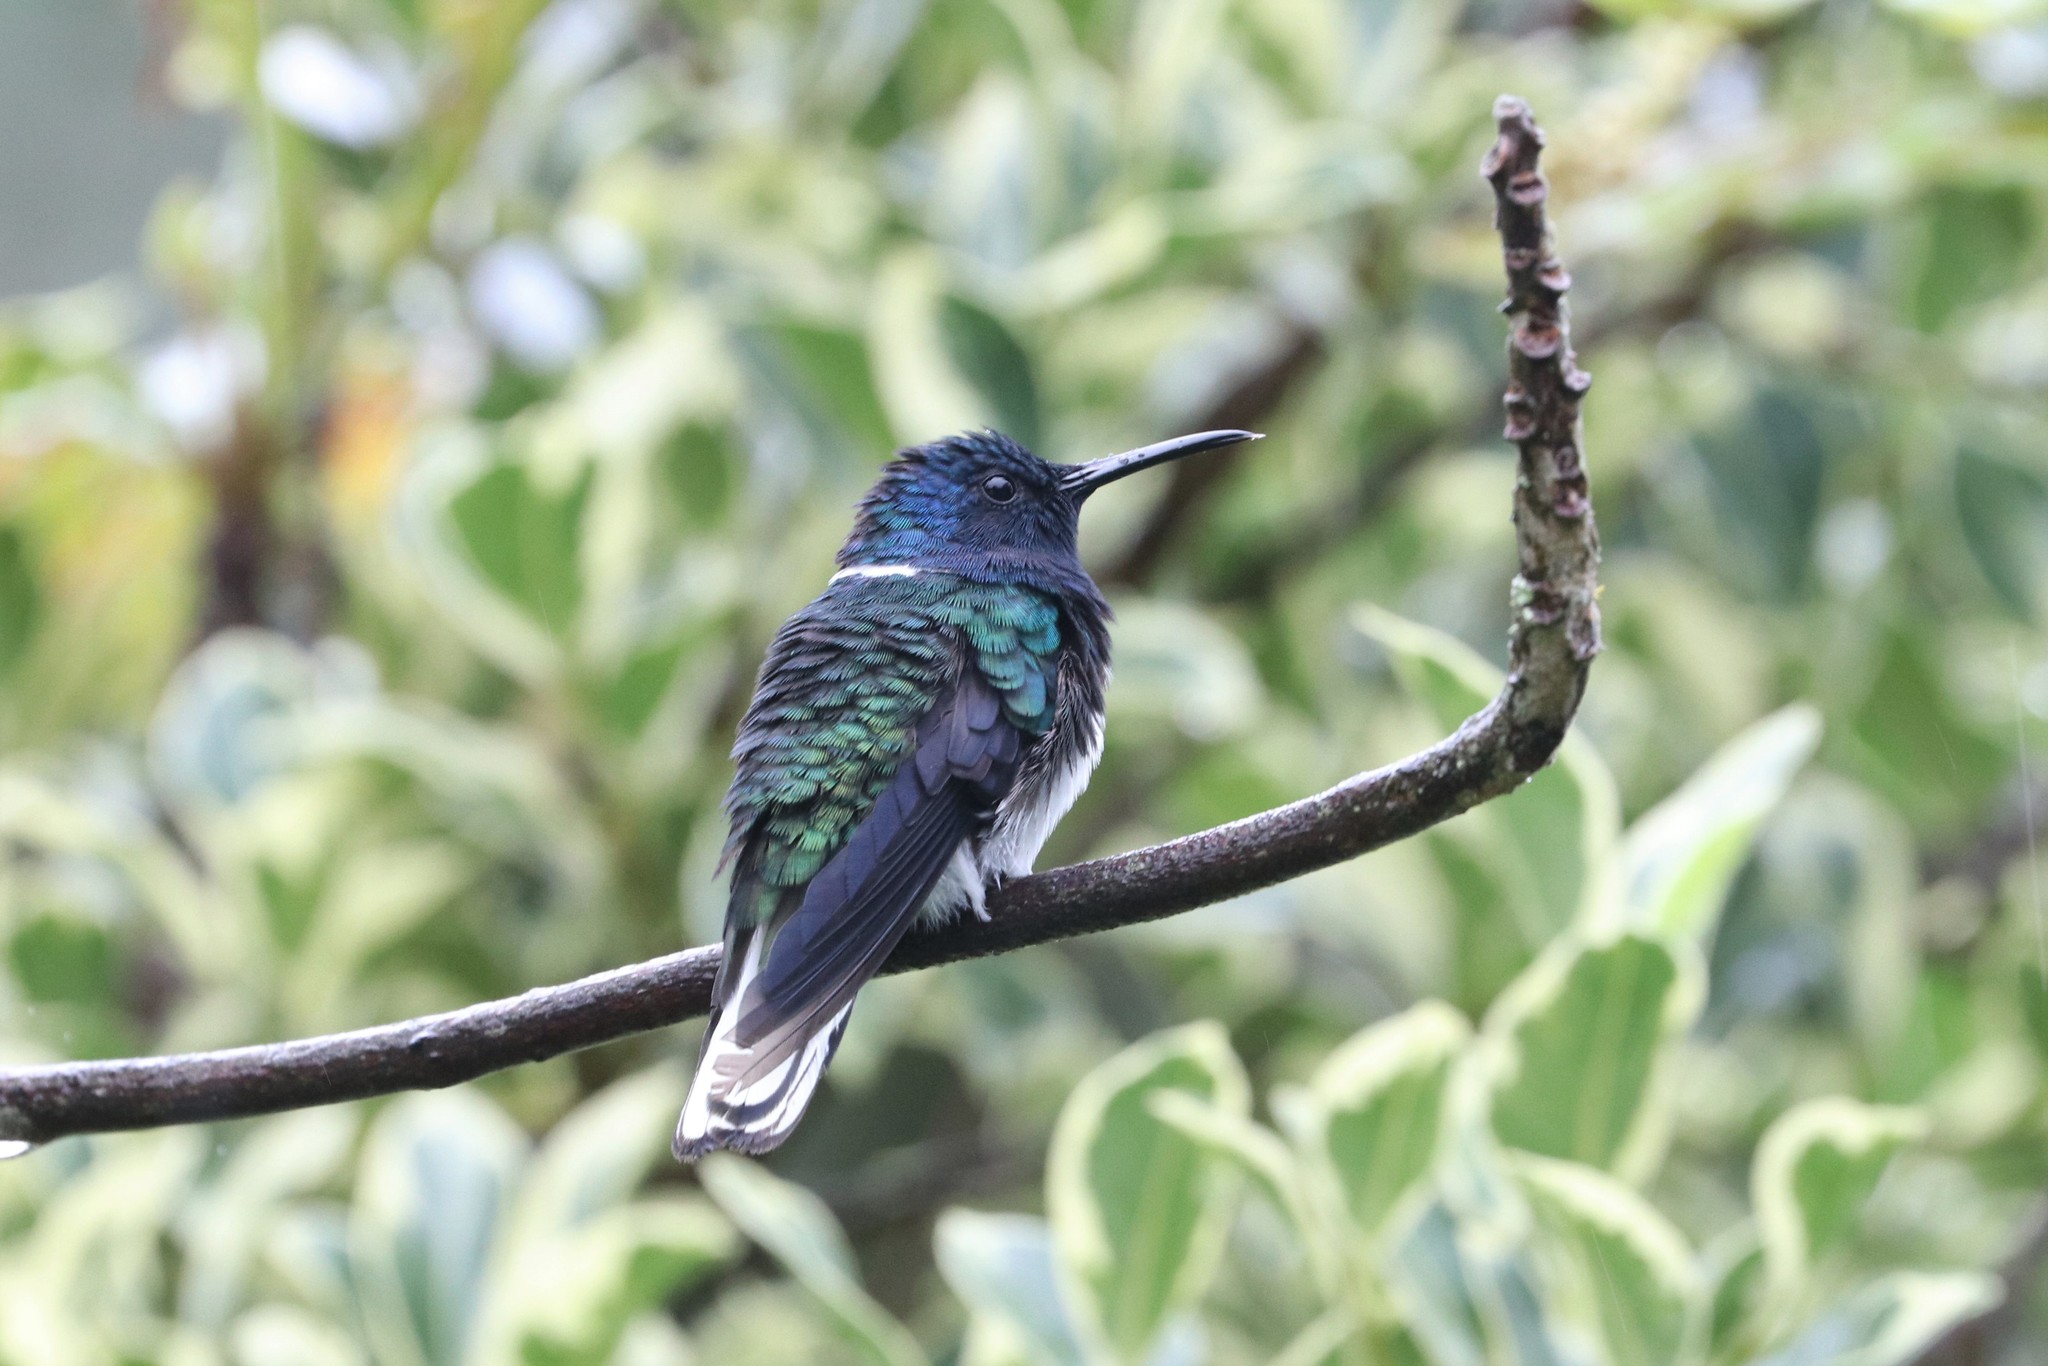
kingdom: Animalia
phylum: Chordata
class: Aves
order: Apodiformes
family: Trochilidae
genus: Florisuga
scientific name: Florisuga mellivora
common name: White-necked jacobin
